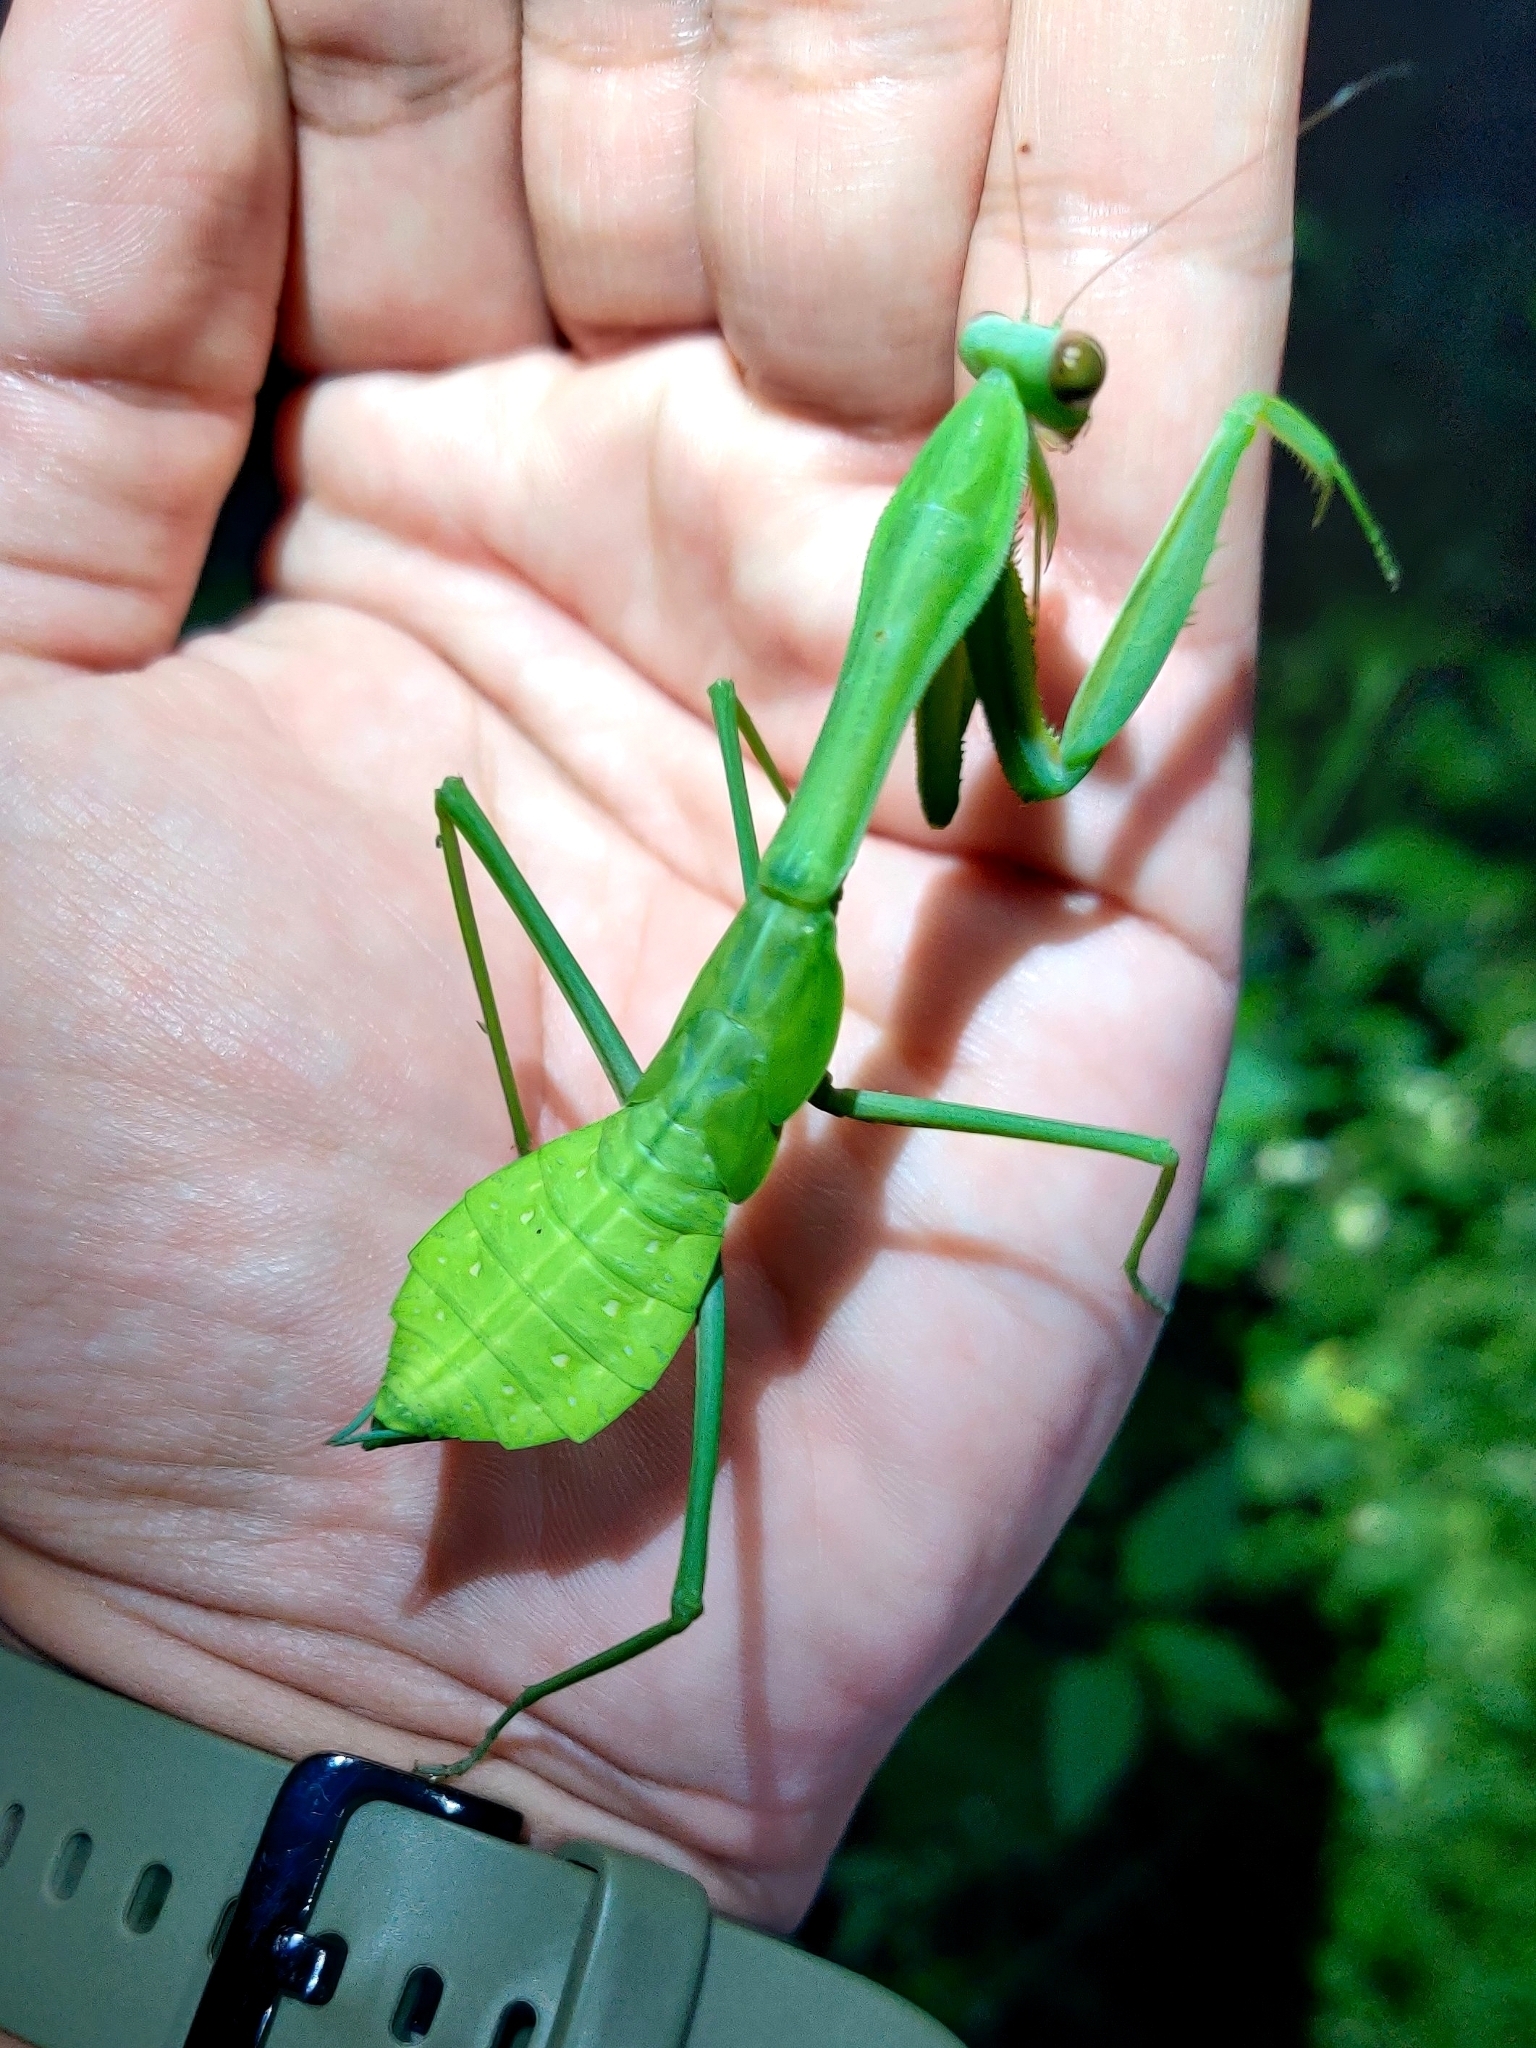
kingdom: Animalia
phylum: Arthropoda
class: Insecta
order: Mantodea
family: Mantidae
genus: Hierodula
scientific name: Hierodula membranacea
